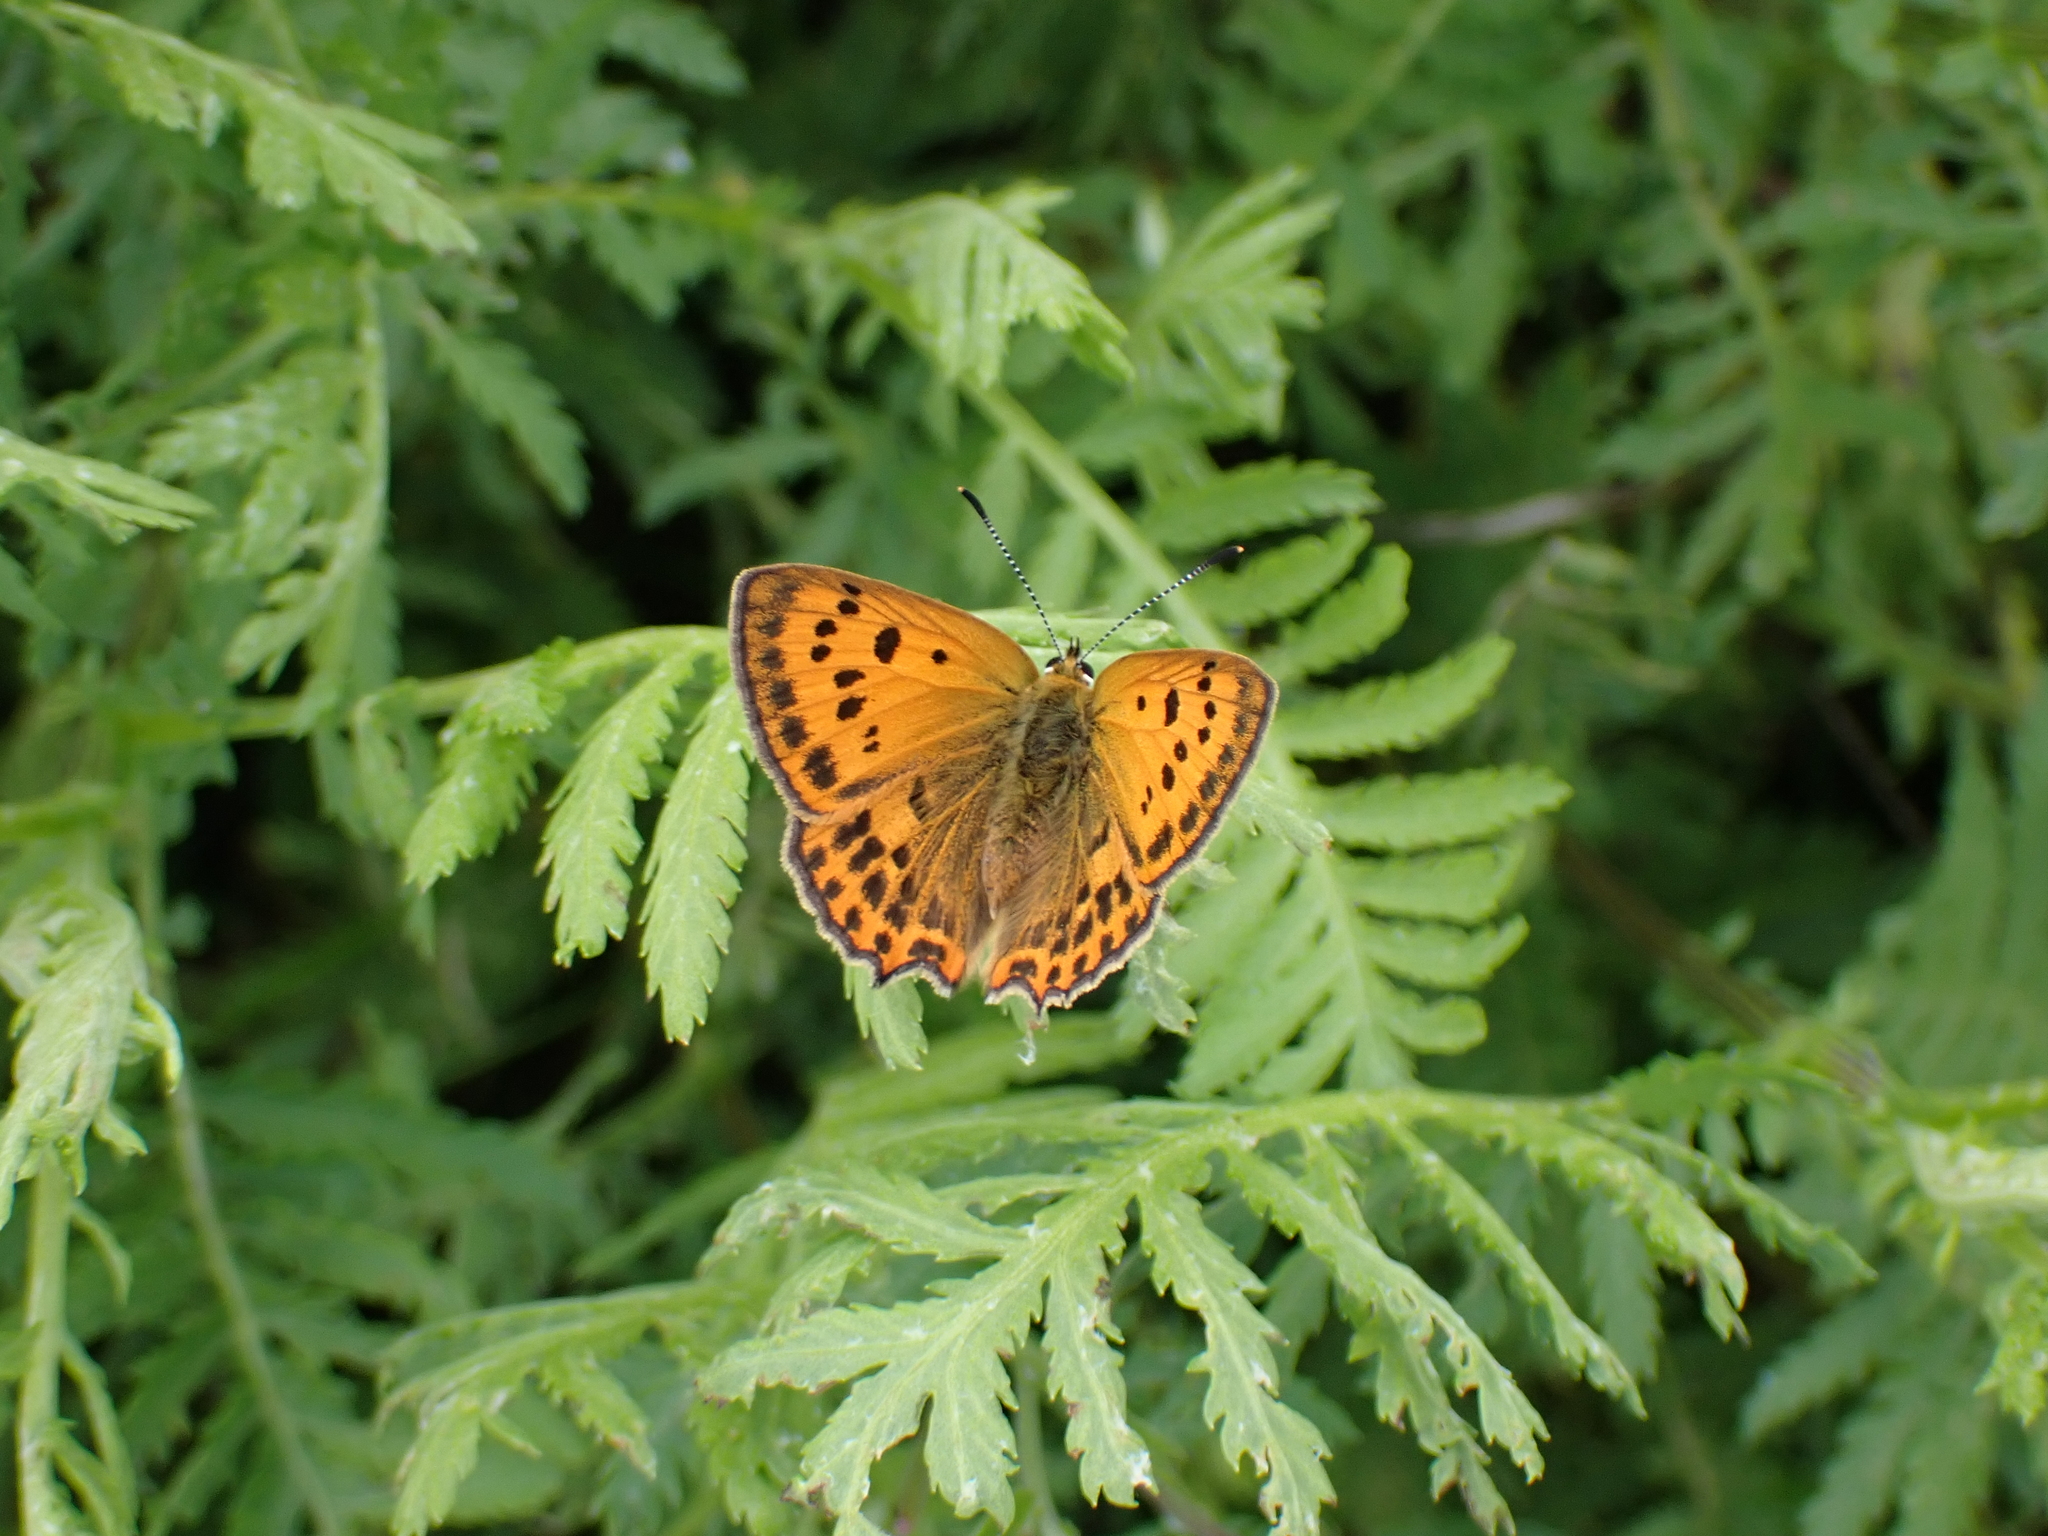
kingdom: Animalia
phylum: Arthropoda
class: Insecta
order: Lepidoptera
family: Lycaenidae
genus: Lycaena
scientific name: Lycaena virgaureae
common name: Scarce copper
